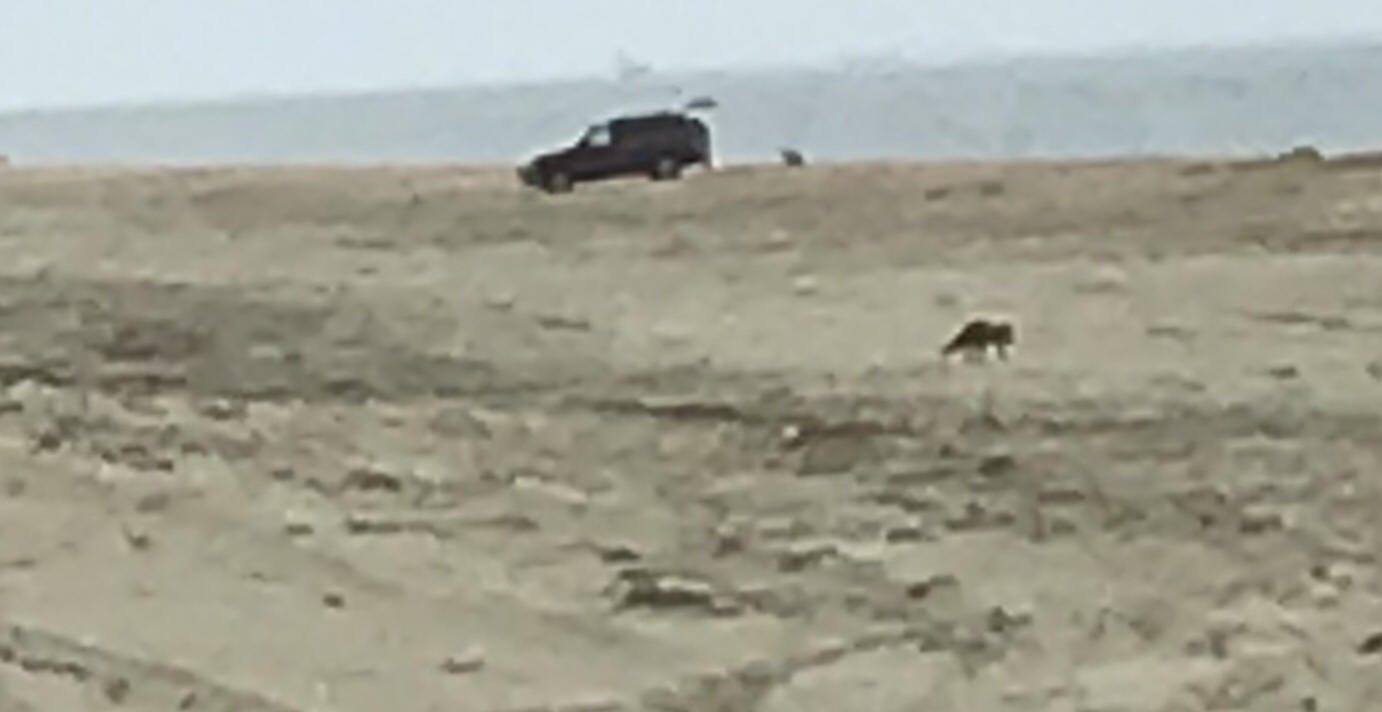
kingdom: Animalia
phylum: Chordata
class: Mammalia
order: Carnivora
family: Canidae
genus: Vulpes
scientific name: Vulpes vulpes
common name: Red fox
